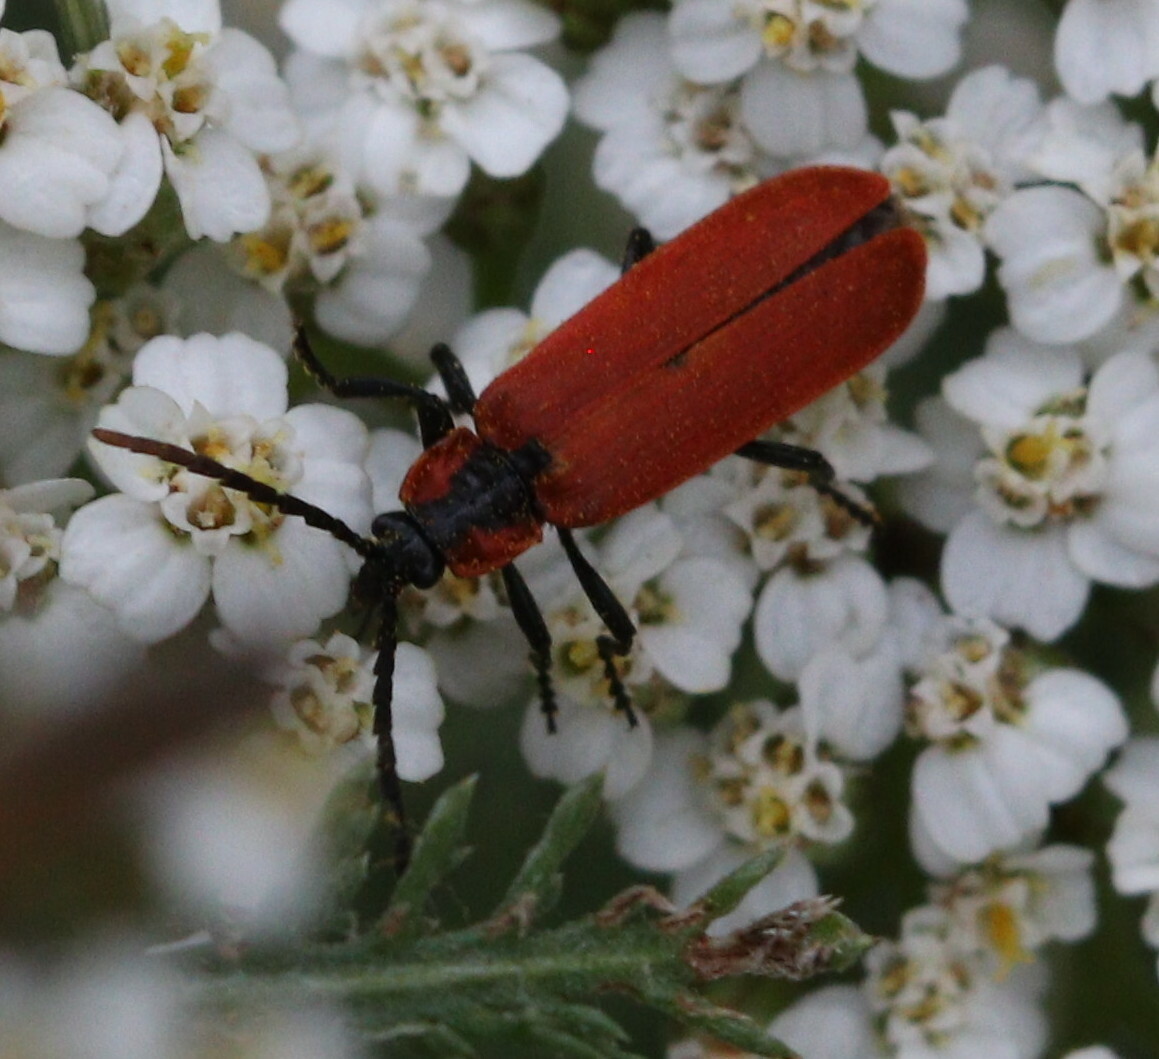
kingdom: Animalia
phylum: Arthropoda
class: Insecta
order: Coleoptera
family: Lycidae
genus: Lygistopterus
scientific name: Lygistopterus sanguineus
